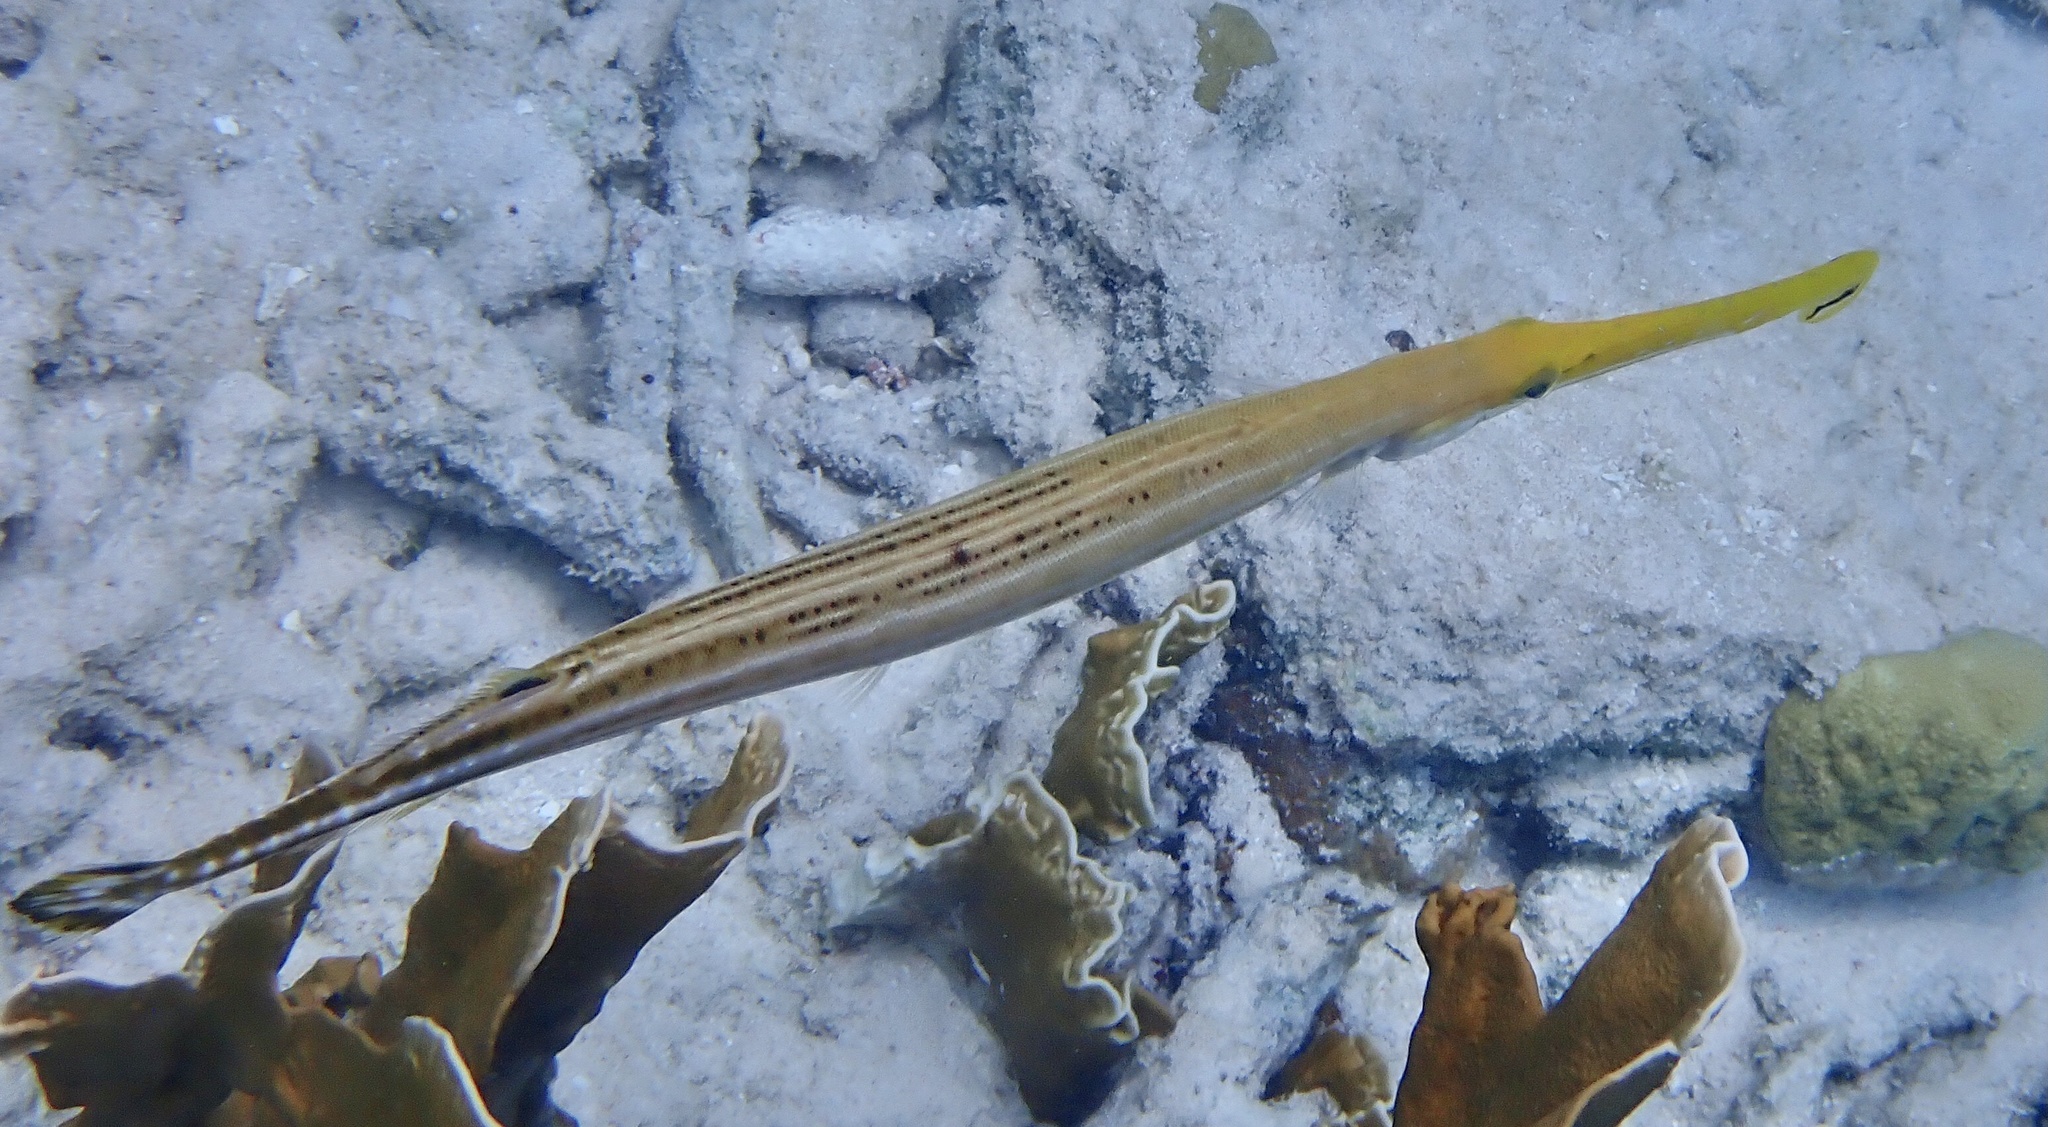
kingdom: Animalia
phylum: Chordata
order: Syngnathiformes
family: Aulostomidae
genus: Aulostomus
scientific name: Aulostomus maculatus
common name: West atlantic trumpetfish
